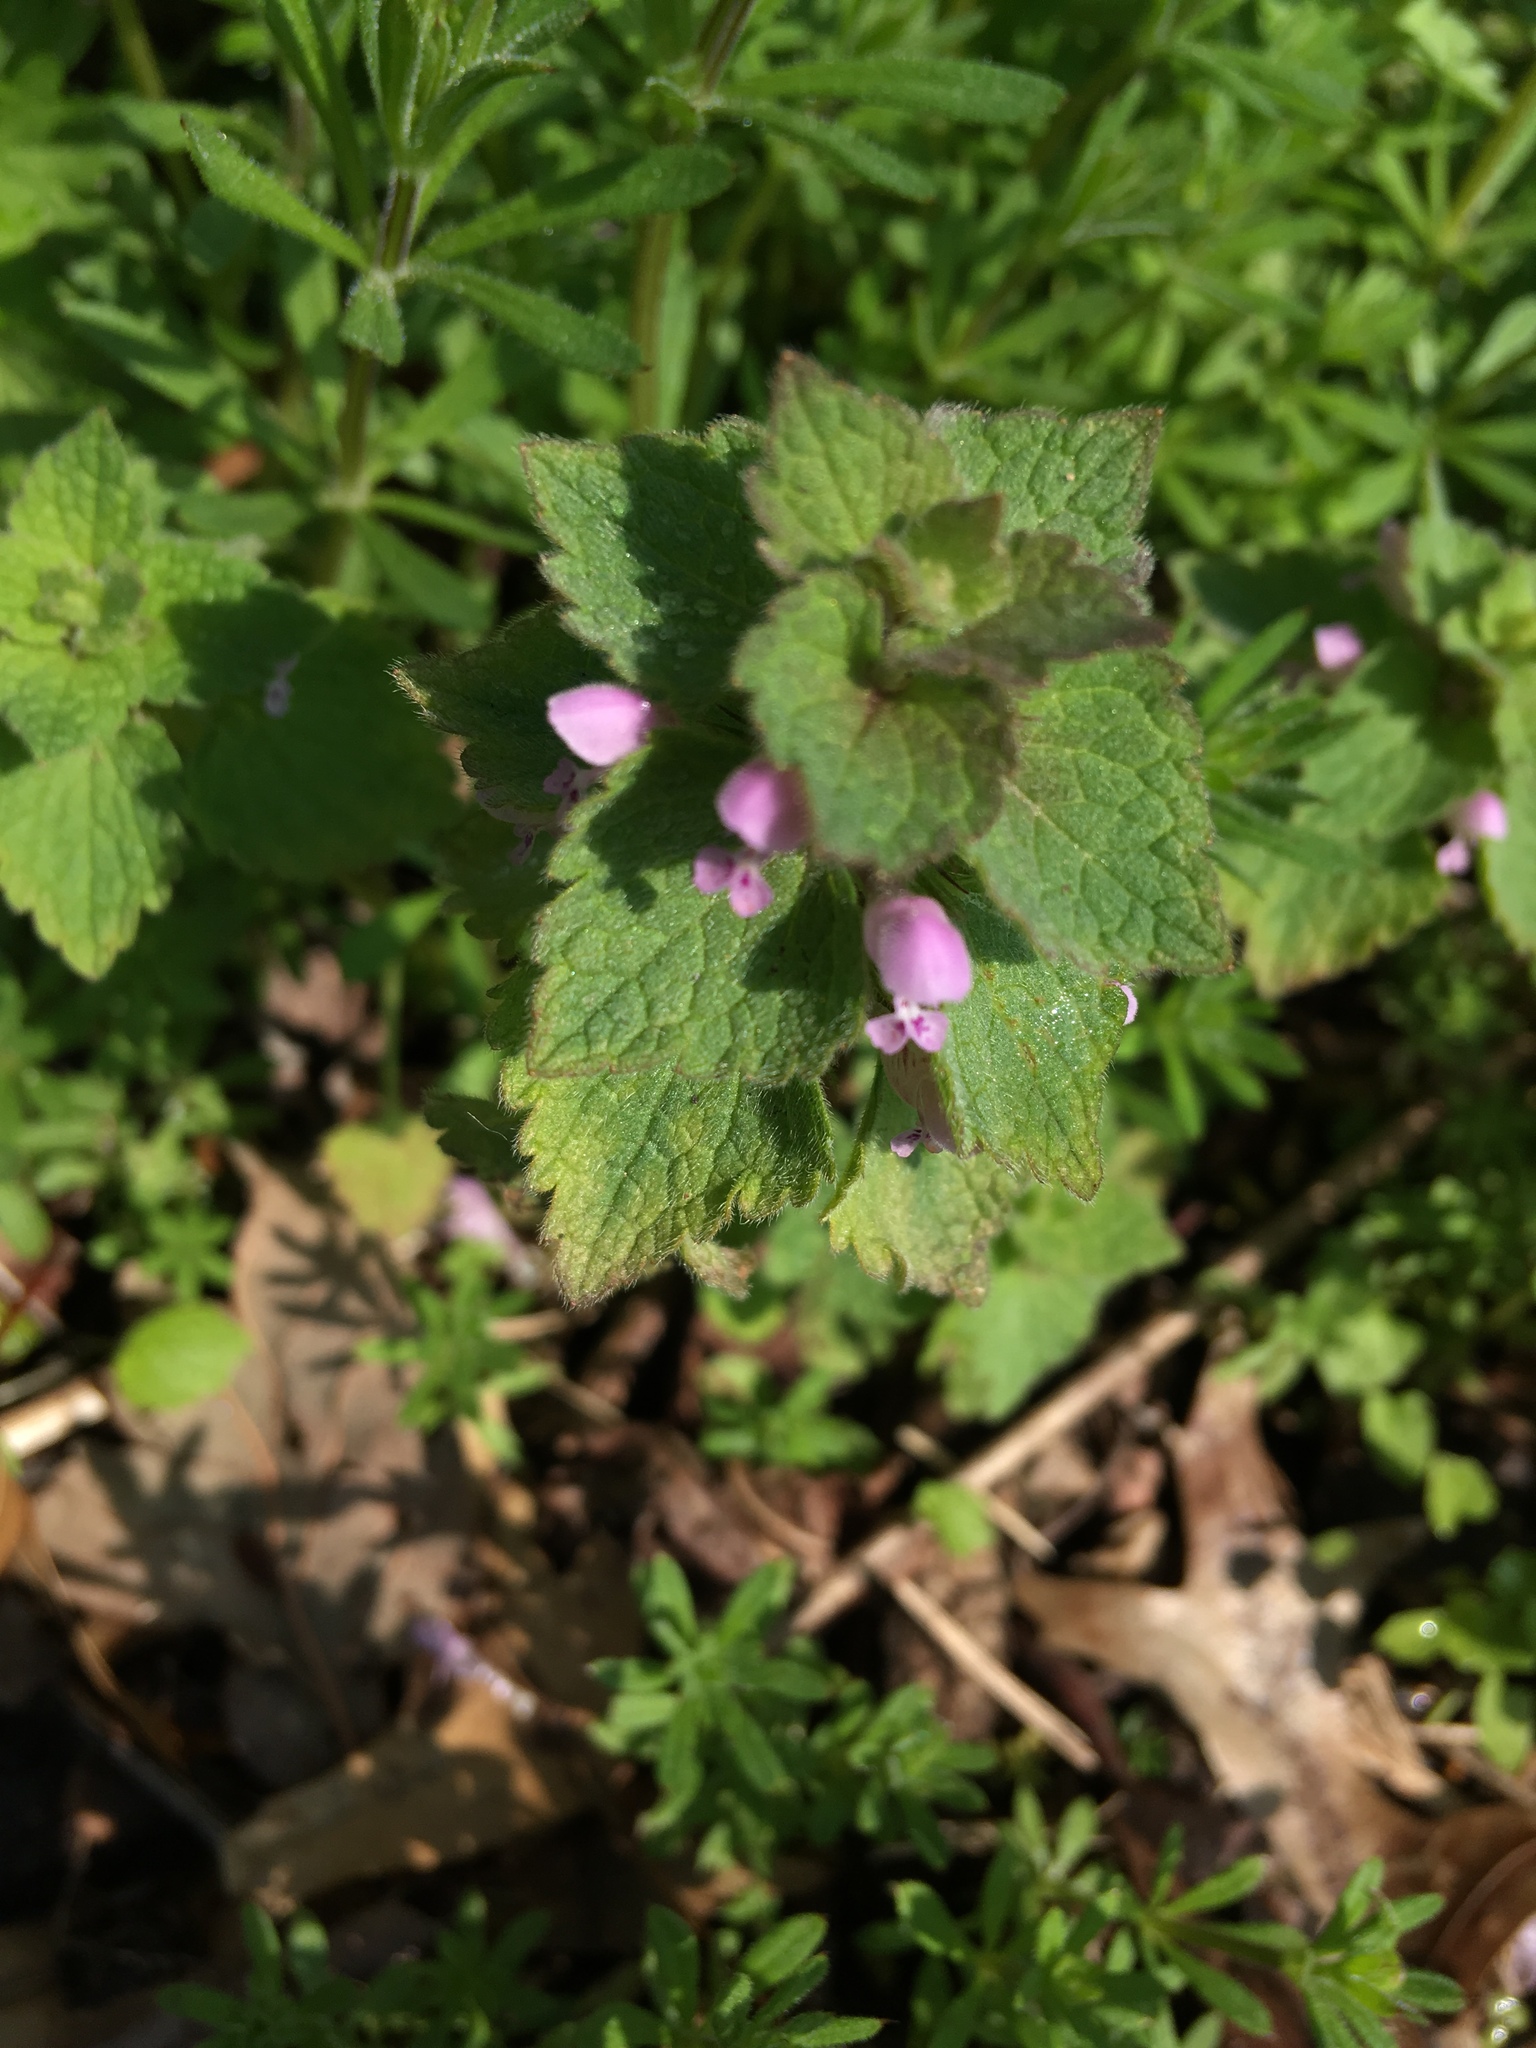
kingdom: Plantae
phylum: Tracheophyta
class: Magnoliopsida
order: Lamiales
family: Lamiaceae
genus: Lamium
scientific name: Lamium purpureum
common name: Red dead-nettle
